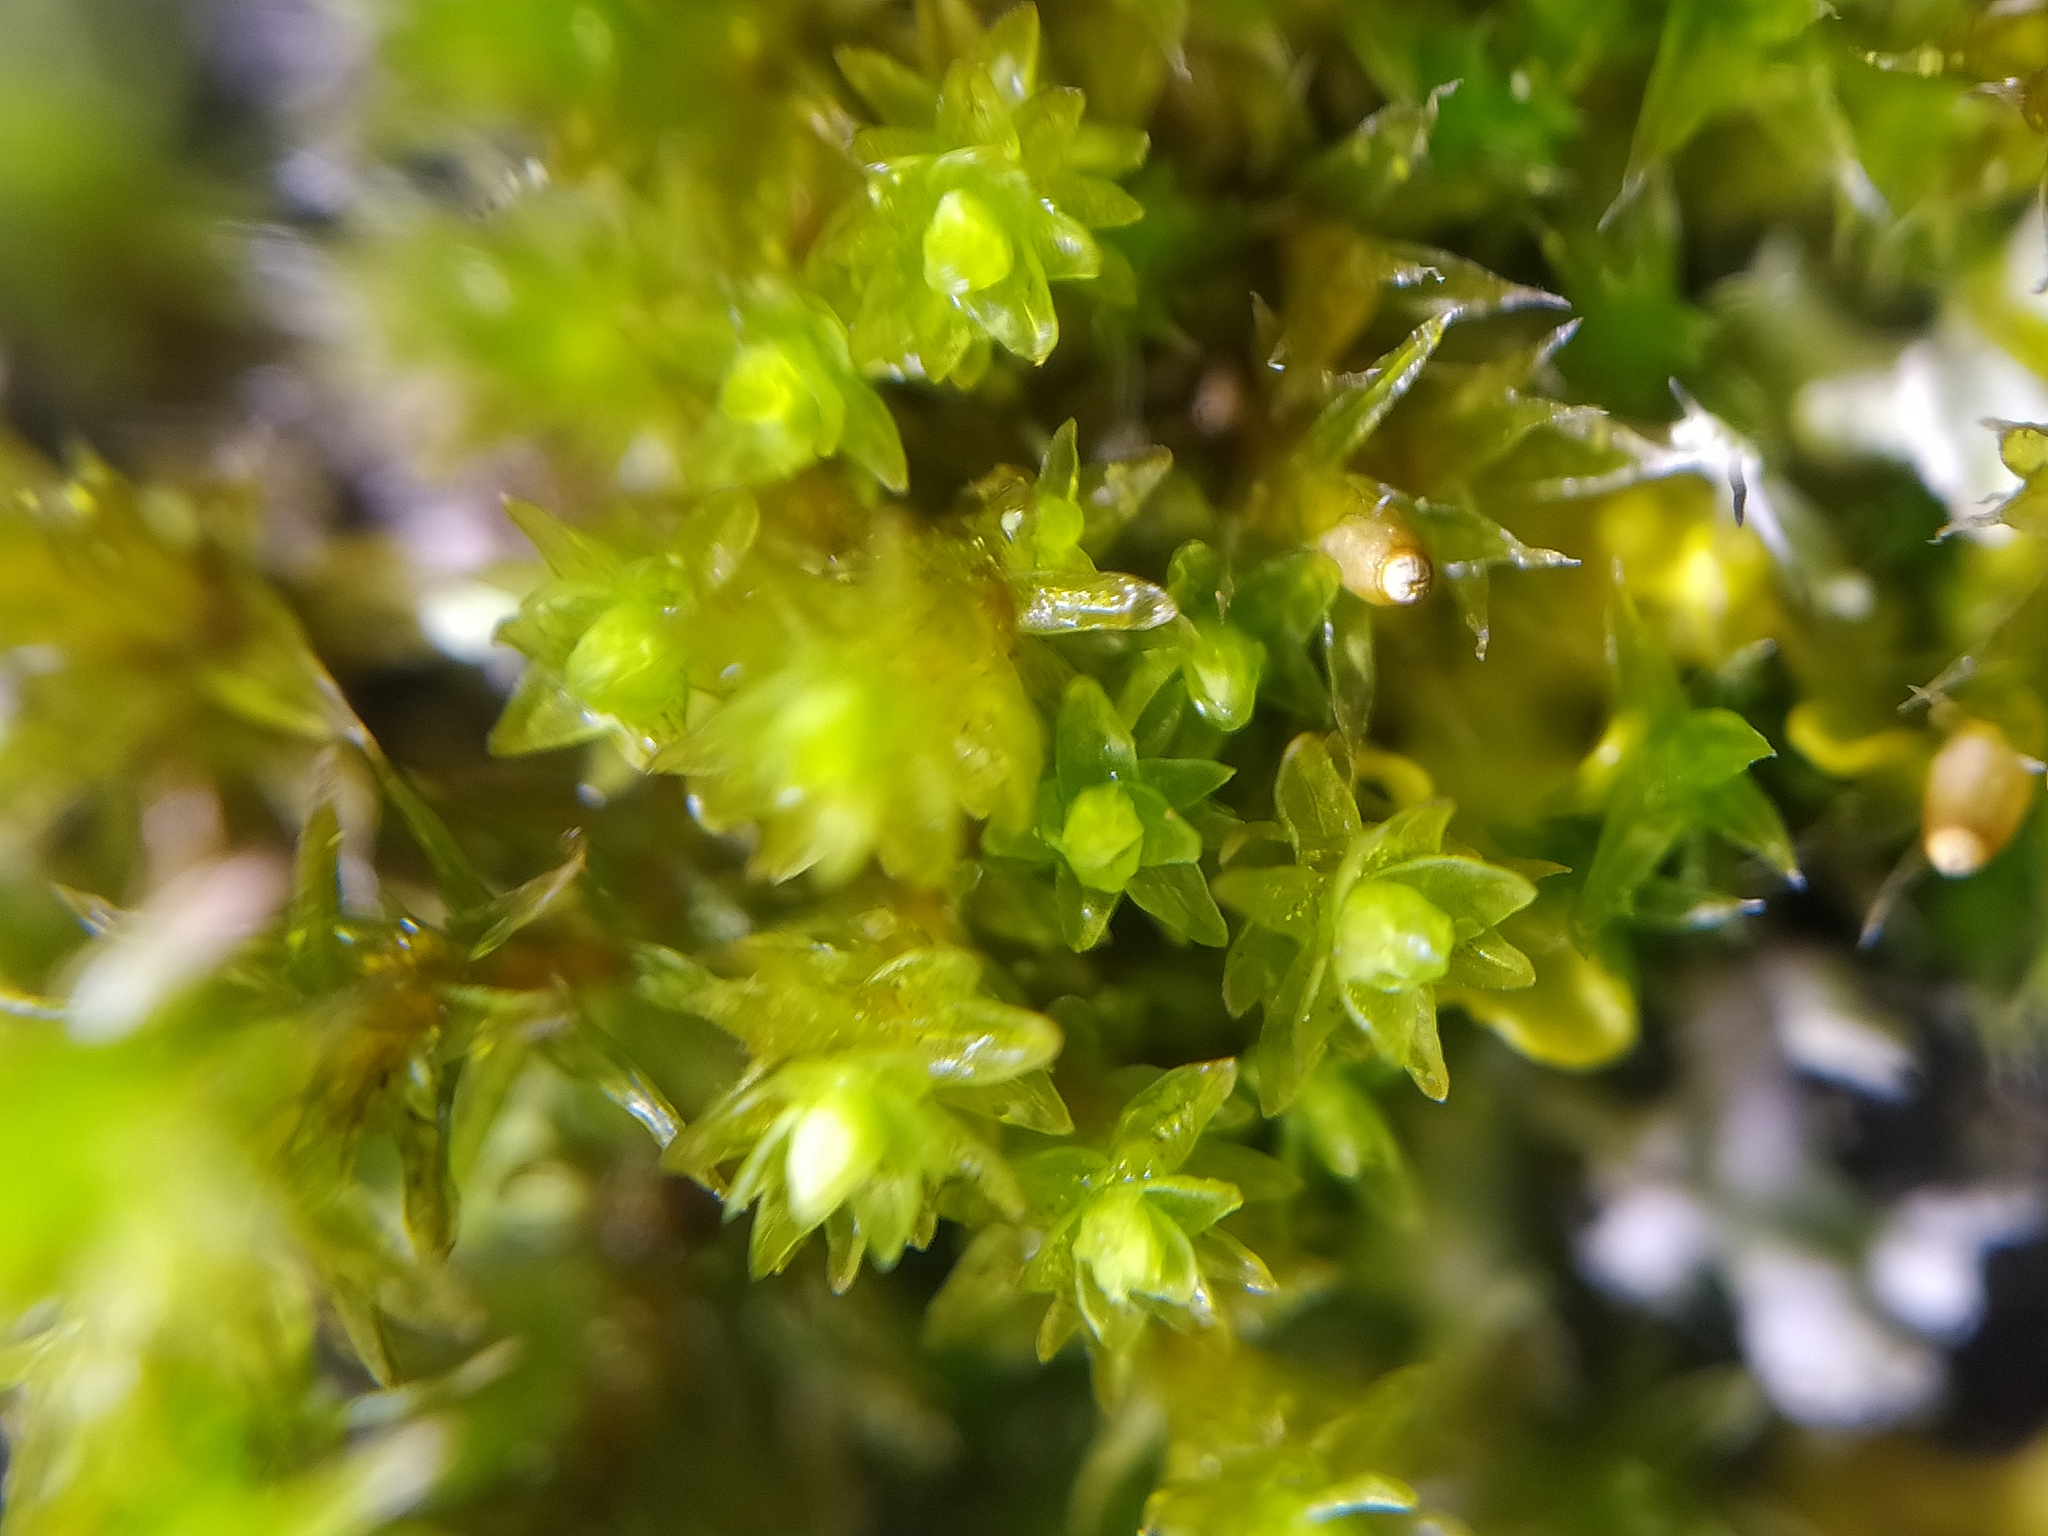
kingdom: Plantae
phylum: Bryophyta
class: Bryopsida
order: Orthotrichales
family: Orthotrichaceae
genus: Nyholmiella
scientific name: Nyholmiella obtusifolia
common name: Blunt-leaved bristle-moss
